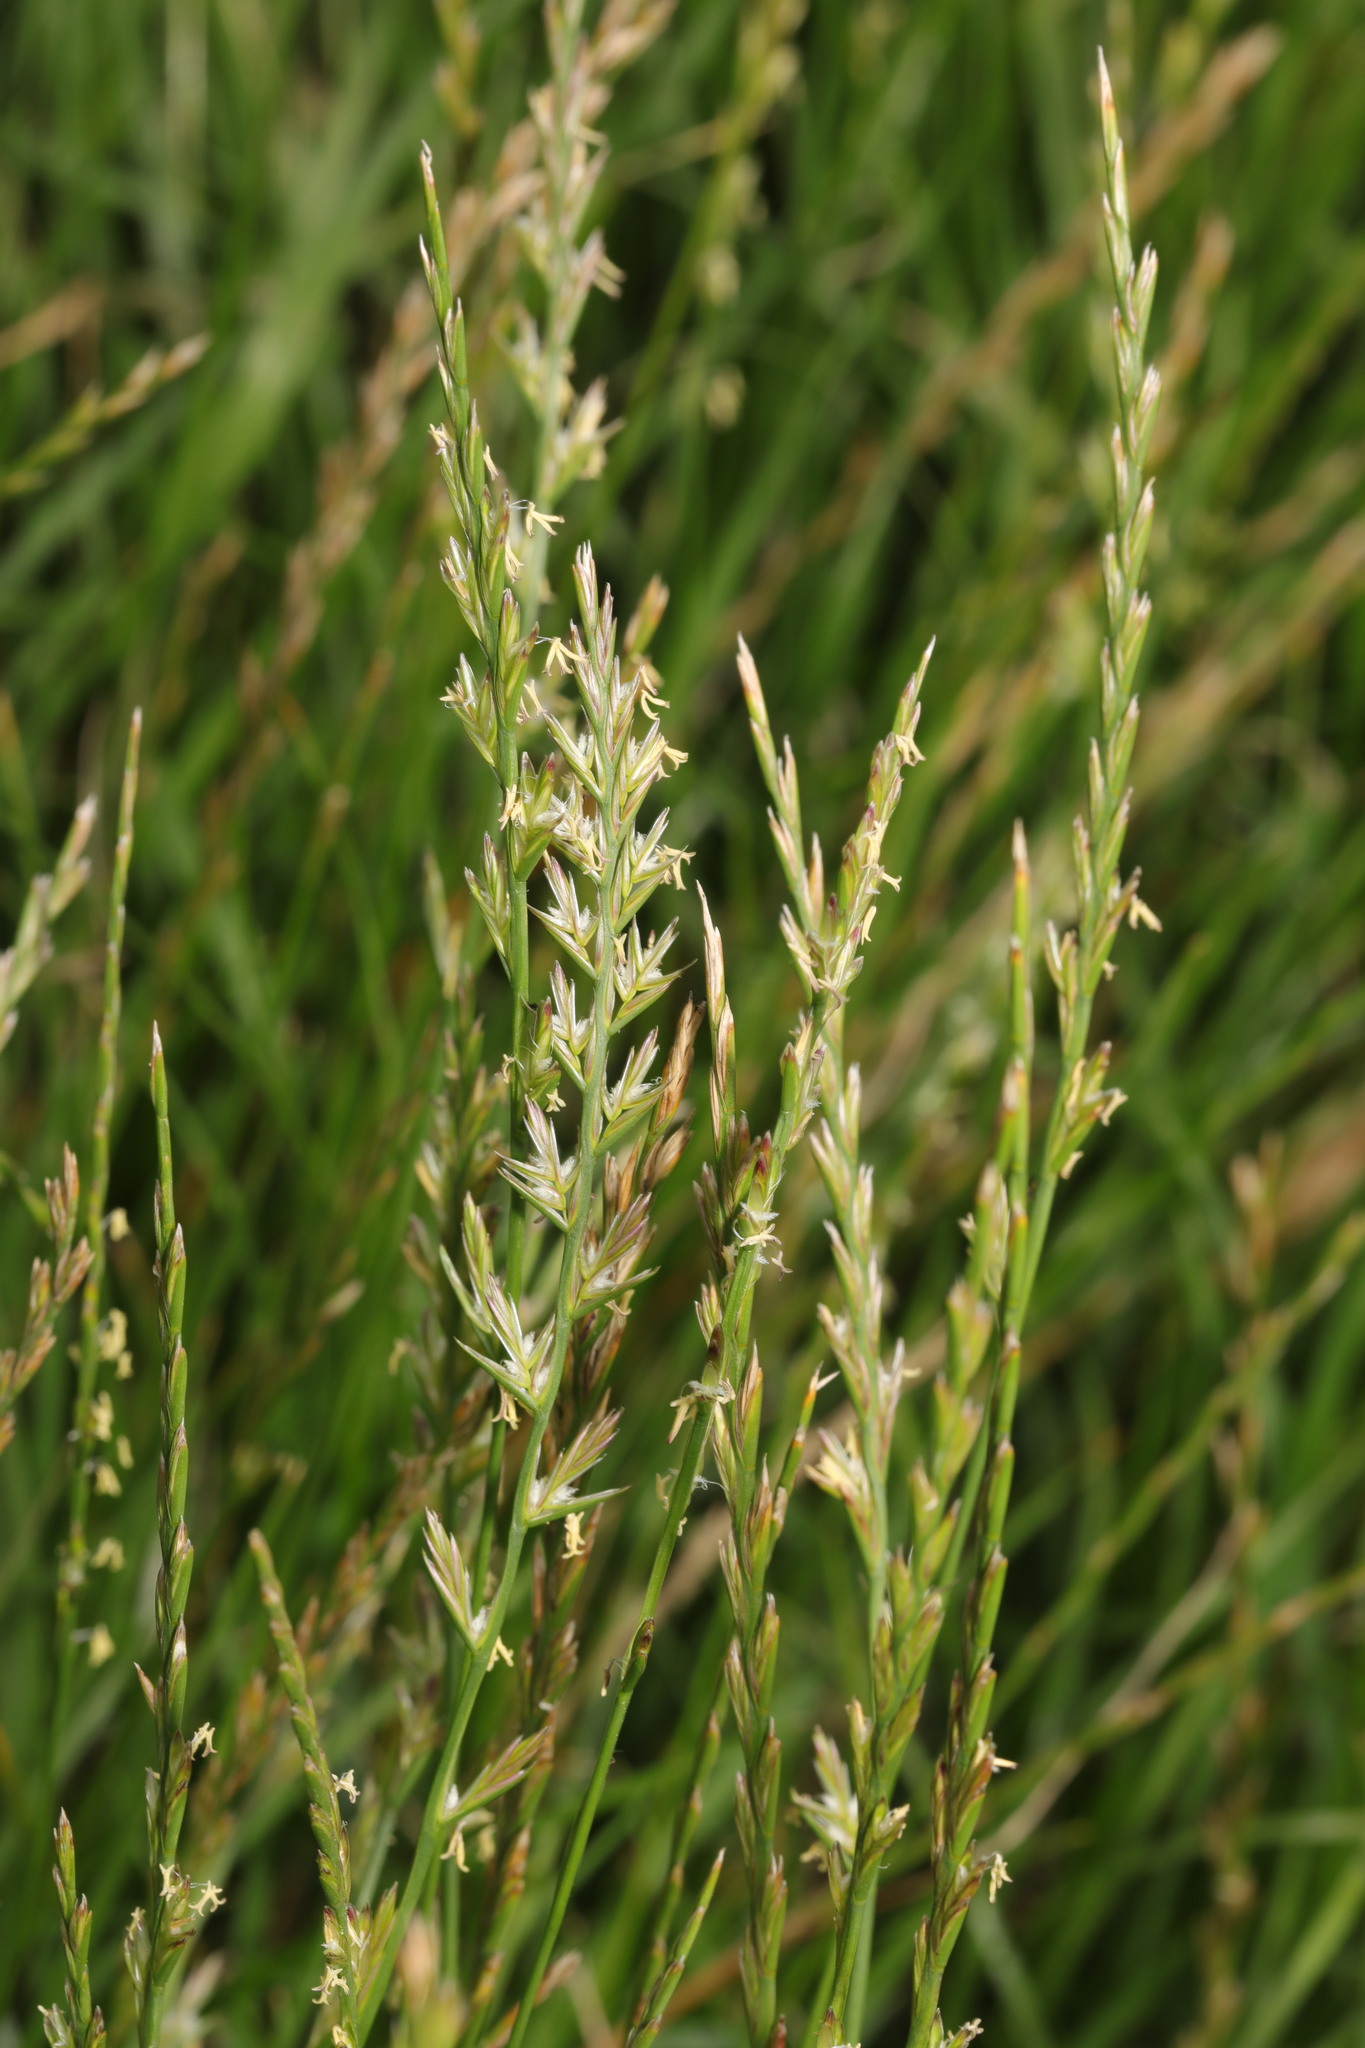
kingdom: Plantae
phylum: Tracheophyta
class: Liliopsida
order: Poales
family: Poaceae
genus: Lolium
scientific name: Lolium perenne
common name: Perennial ryegrass
